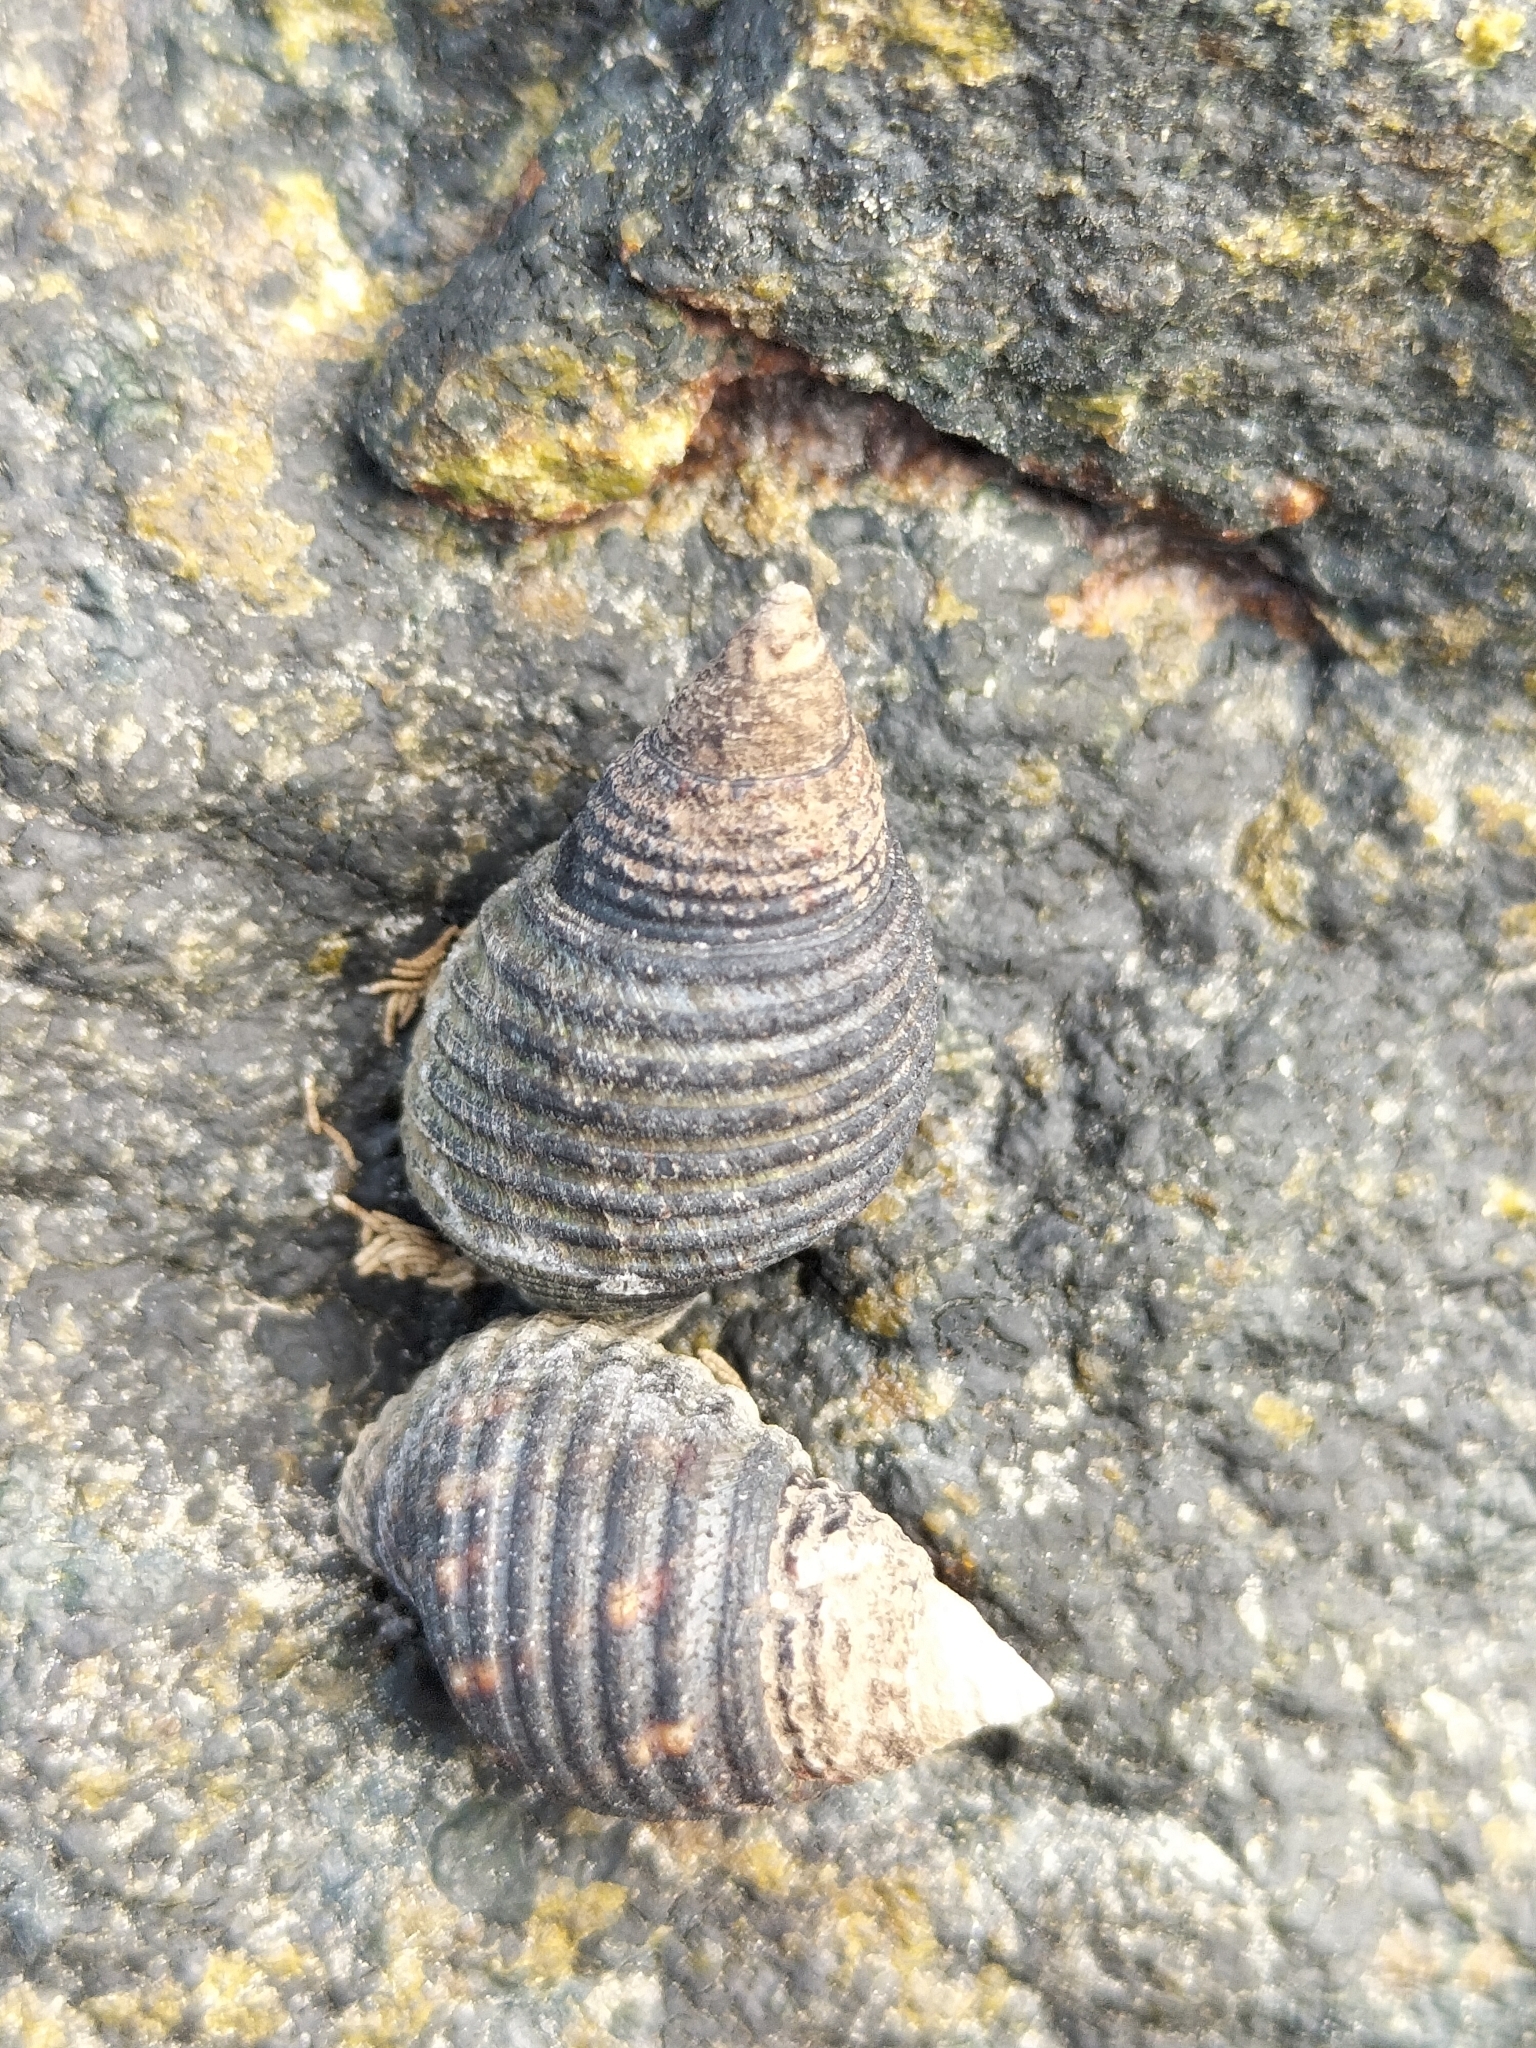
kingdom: Animalia
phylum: Mollusca
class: Gastropoda
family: Planaxidae
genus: Planaxis
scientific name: Planaxis sulcatus
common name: Furrowed planaxis
